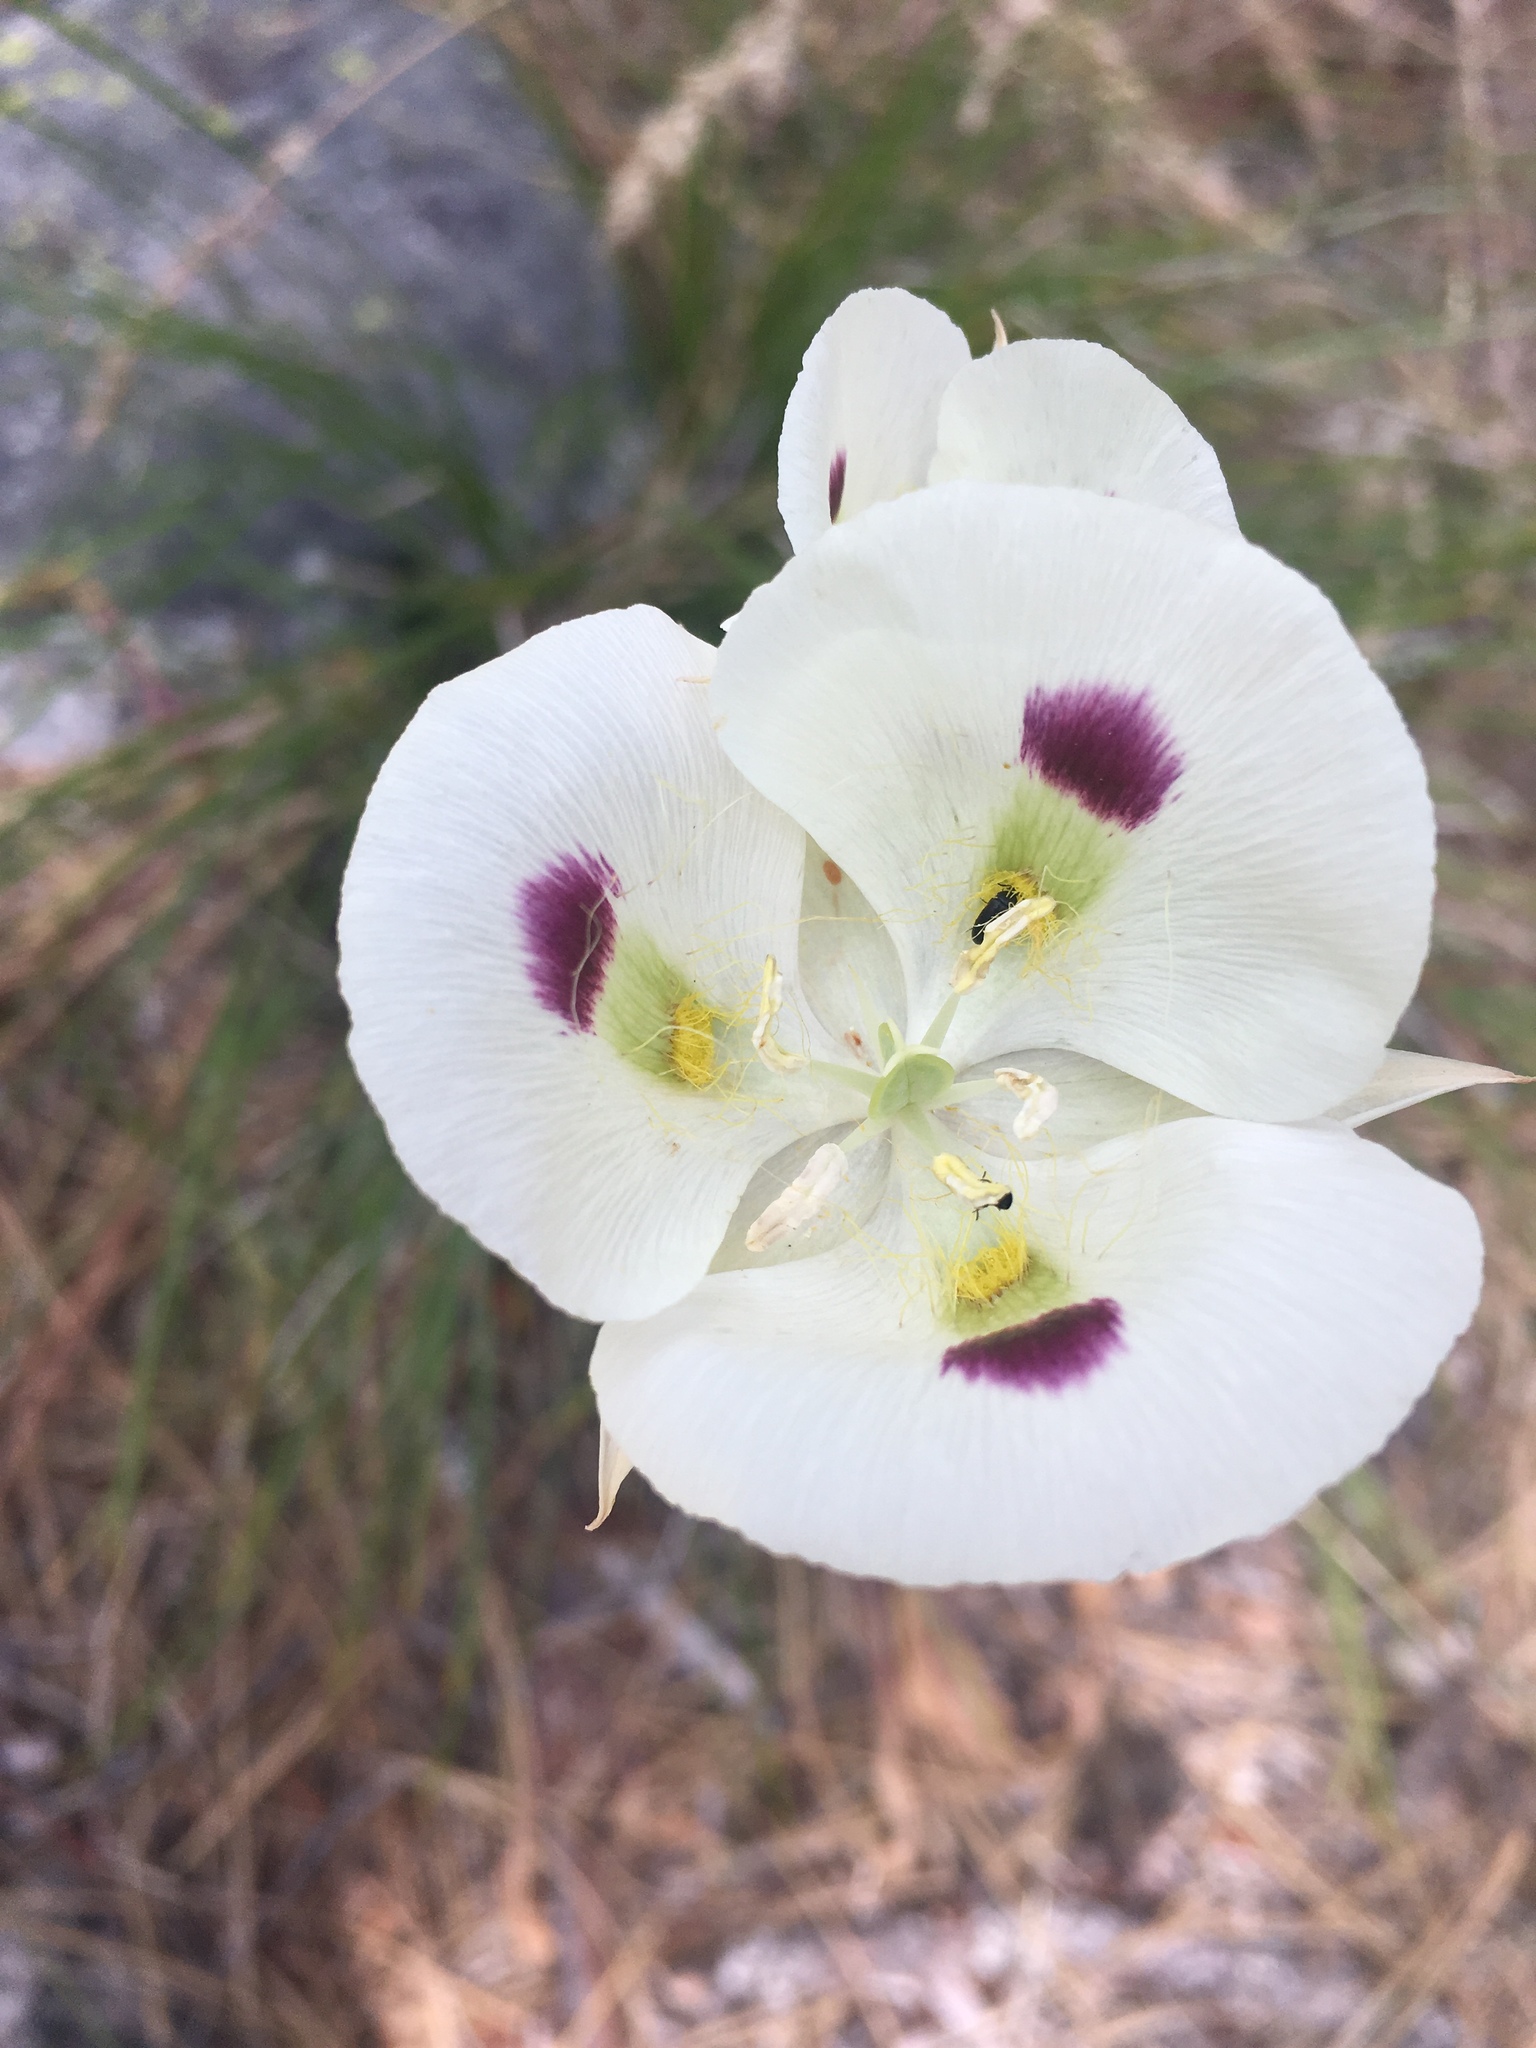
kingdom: Plantae
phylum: Tracheophyta
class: Liliopsida
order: Liliales
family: Liliaceae
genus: Calochortus
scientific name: Calochortus eurycarpus
